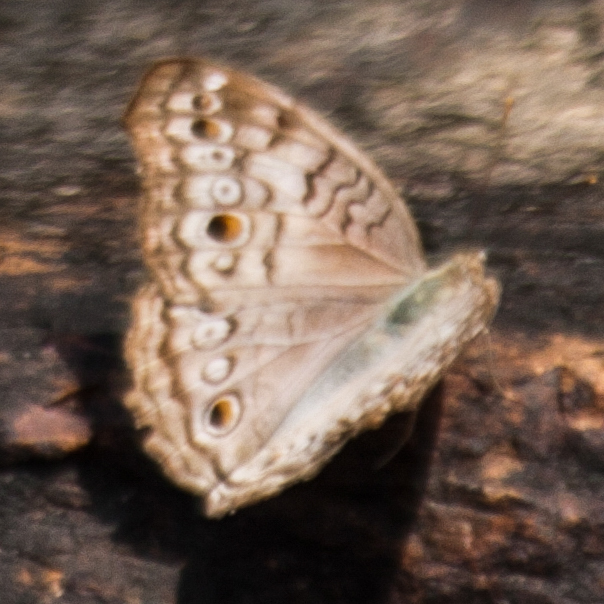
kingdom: Animalia
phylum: Arthropoda
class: Insecta
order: Lepidoptera
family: Nymphalidae
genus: Junonia
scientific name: Junonia atlites
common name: Grey pansy
